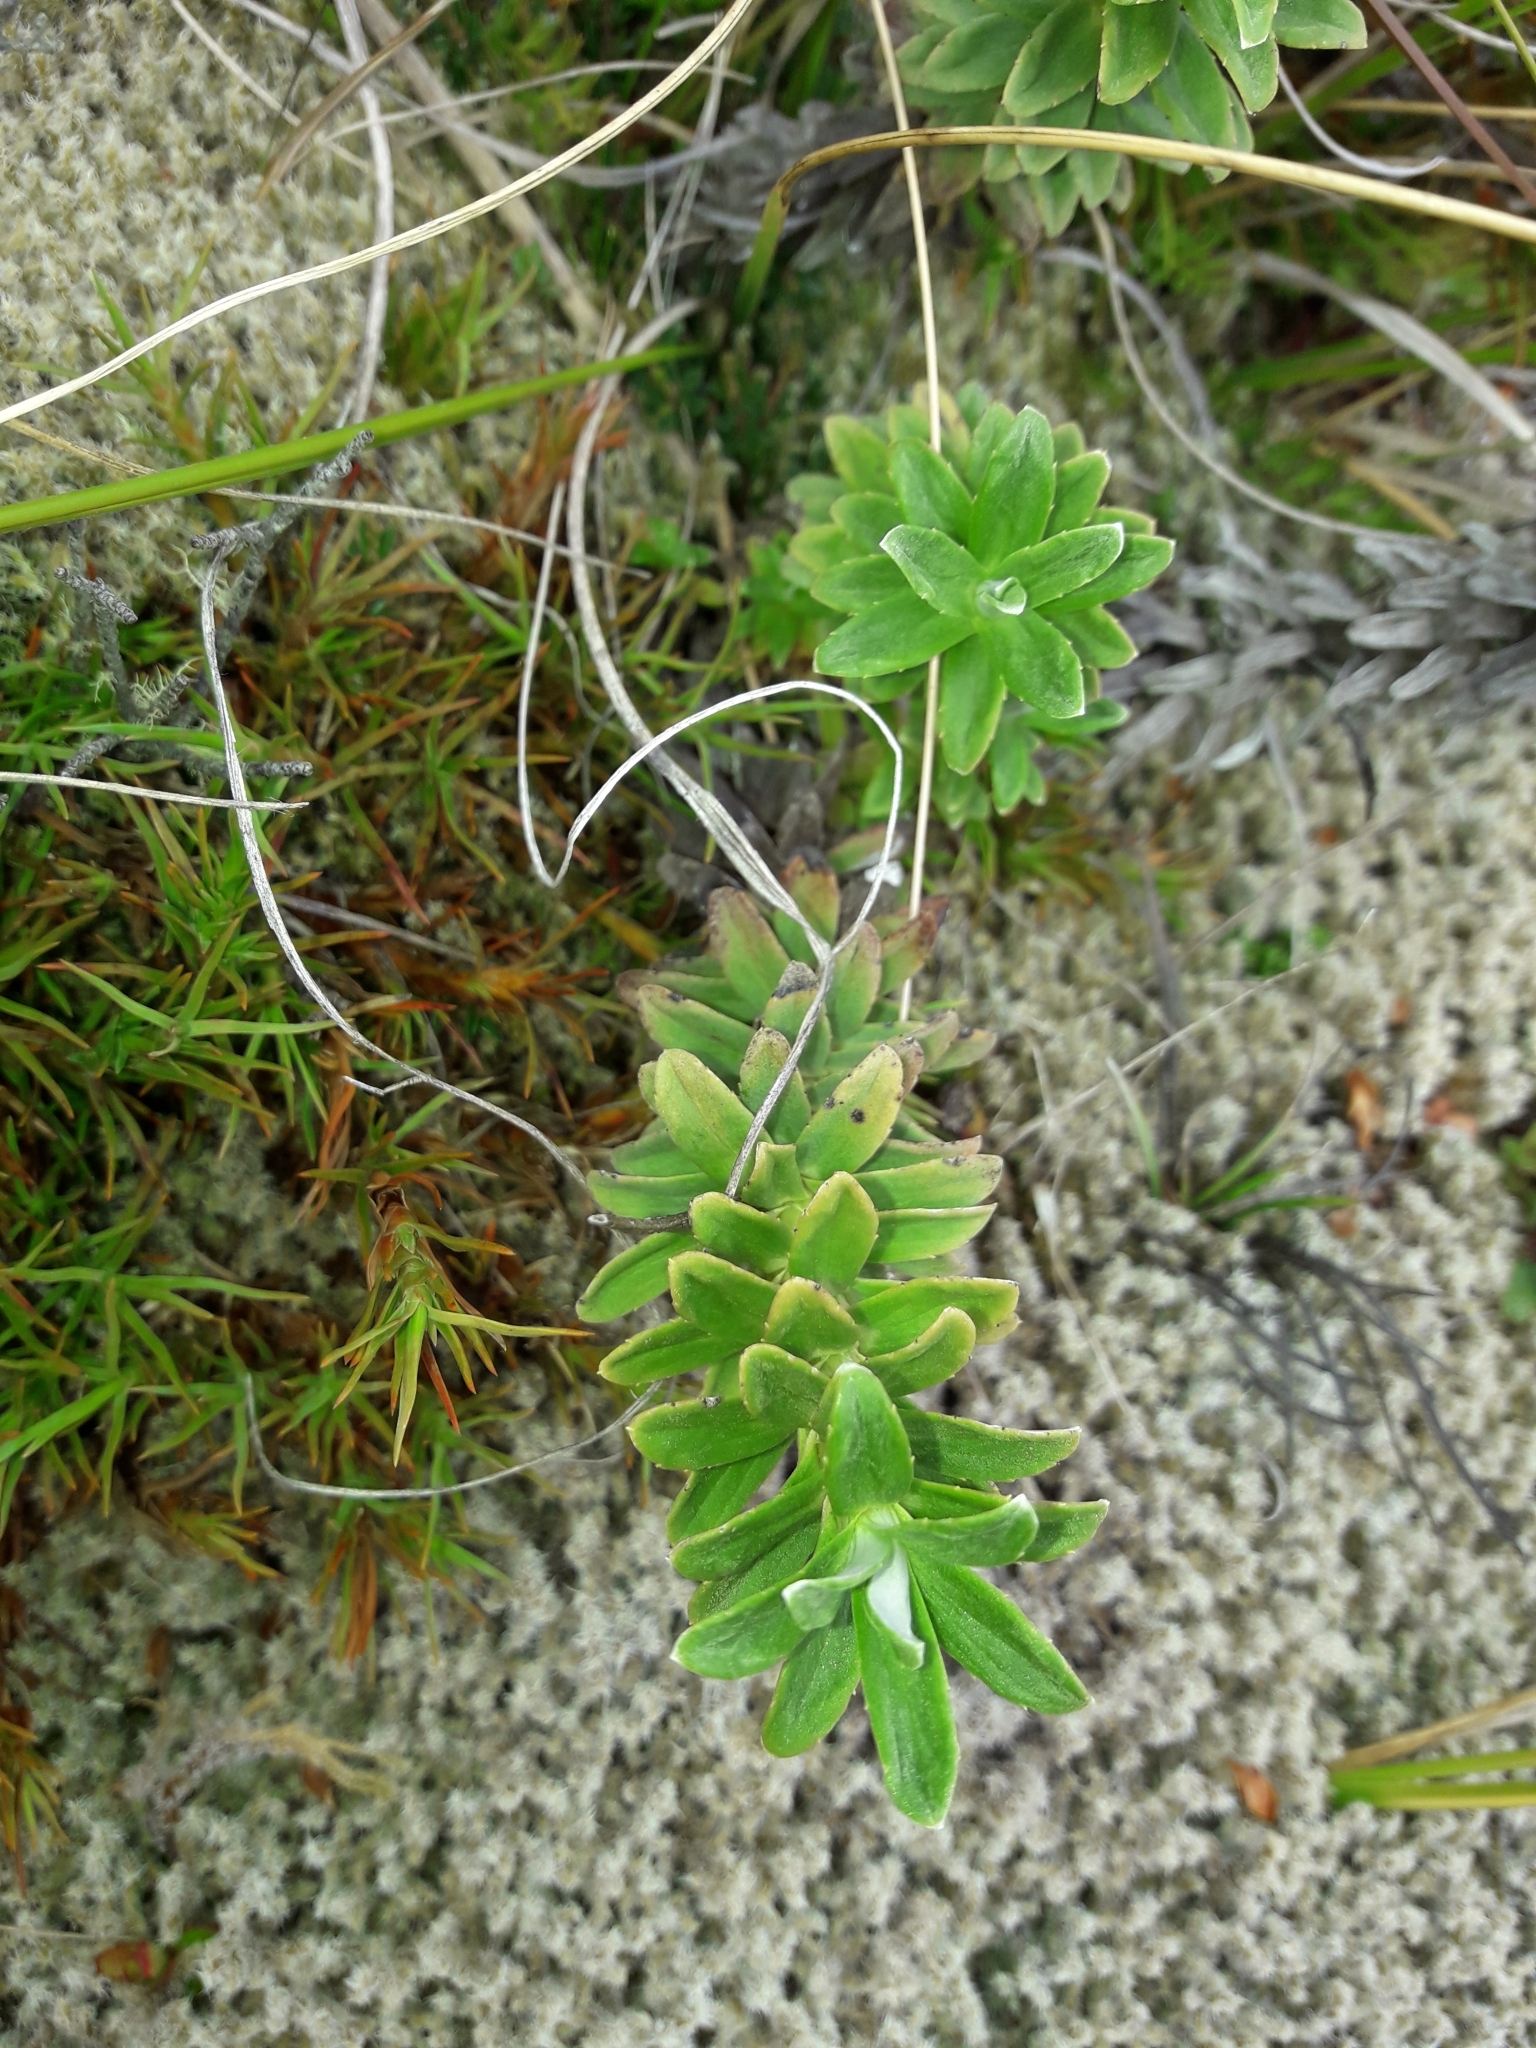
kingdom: Plantae
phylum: Tracheophyta
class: Magnoliopsida
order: Asterales
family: Asteraceae
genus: Celmisia
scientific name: Celmisia angustifolia
